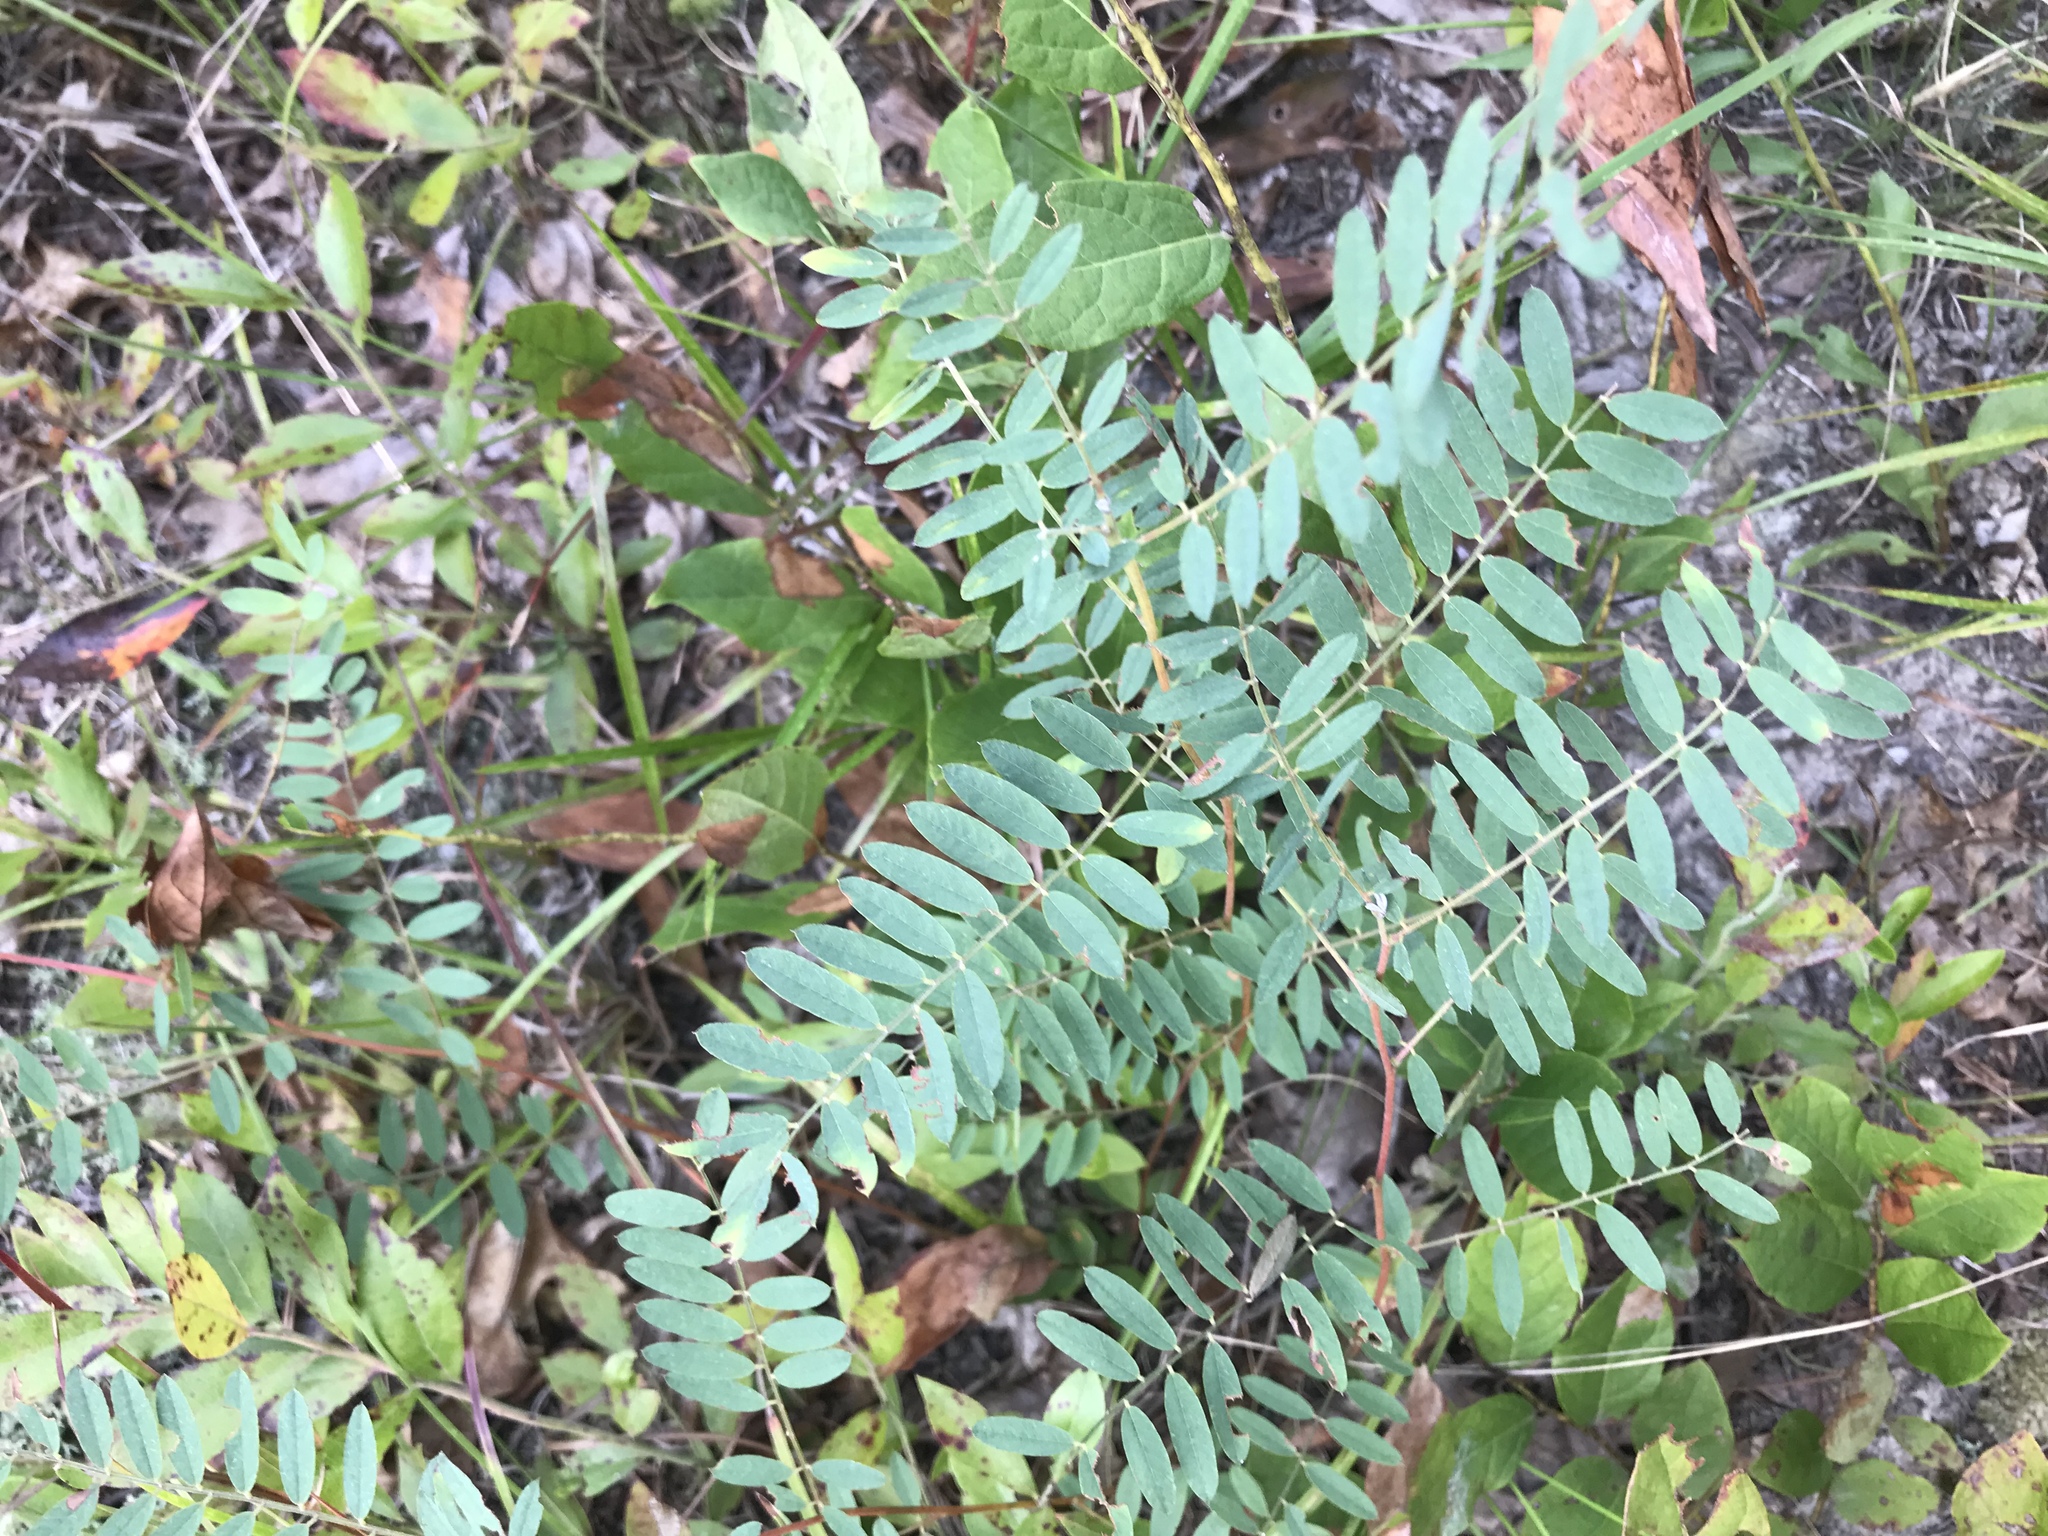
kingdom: Plantae
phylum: Tracheophyta
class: Magnoliopsida
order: Fabales
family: Fabaceae
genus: Tephrosia
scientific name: Tephrosia virginiana
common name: Rabbit-pea
